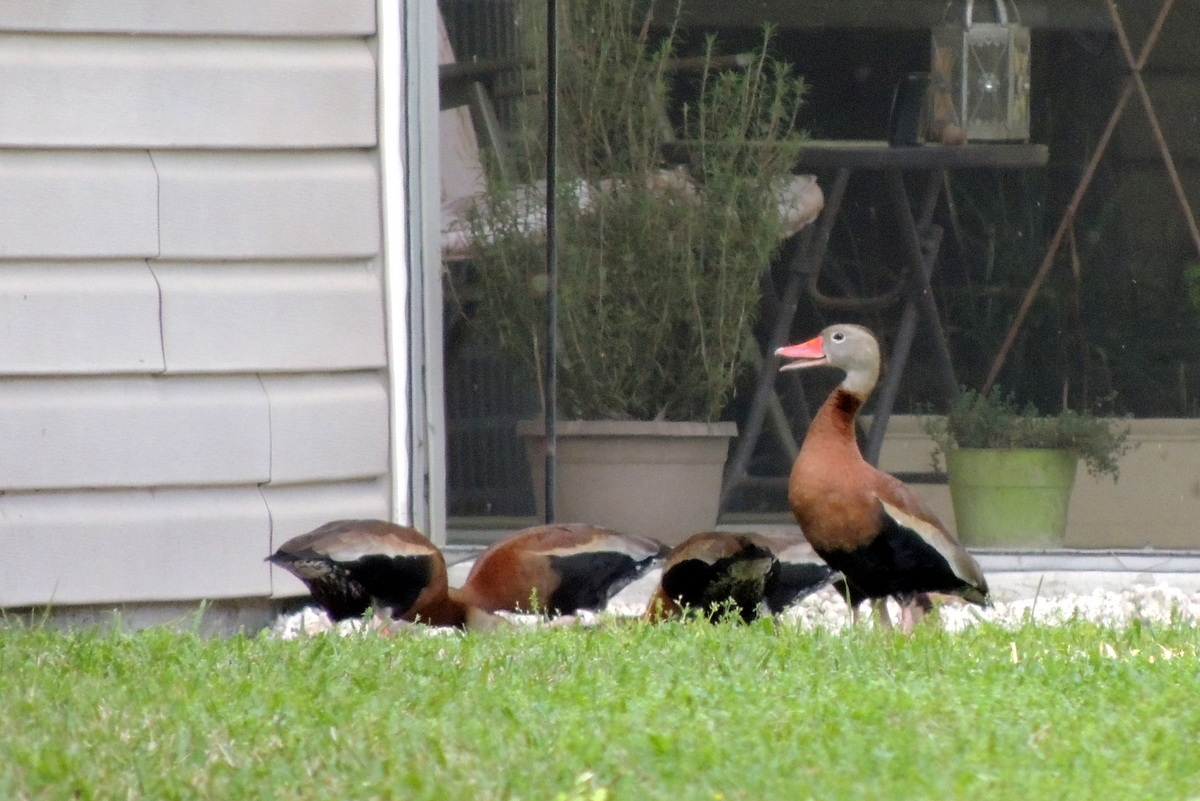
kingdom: Animalia
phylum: Chordata
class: Aves
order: Anseriformes
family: Anatidae
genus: Dendrocygna
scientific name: Dendrocygna autumnalis
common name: Black-bellied whistling duck
